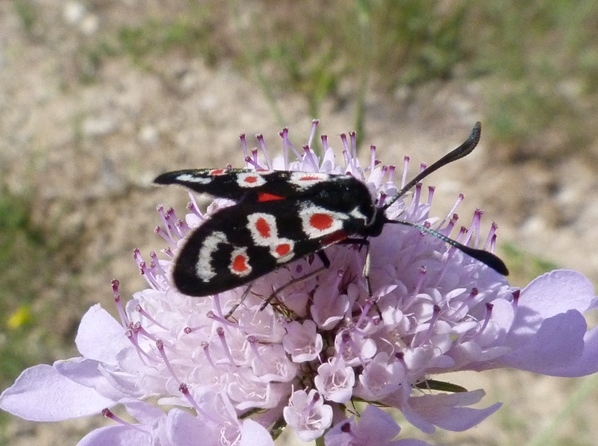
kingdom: Animalia
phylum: Arthropoda
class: Insecta
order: Lepidoptera
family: Zygaenidae
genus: Zygaena
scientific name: Zygaena occitanica
